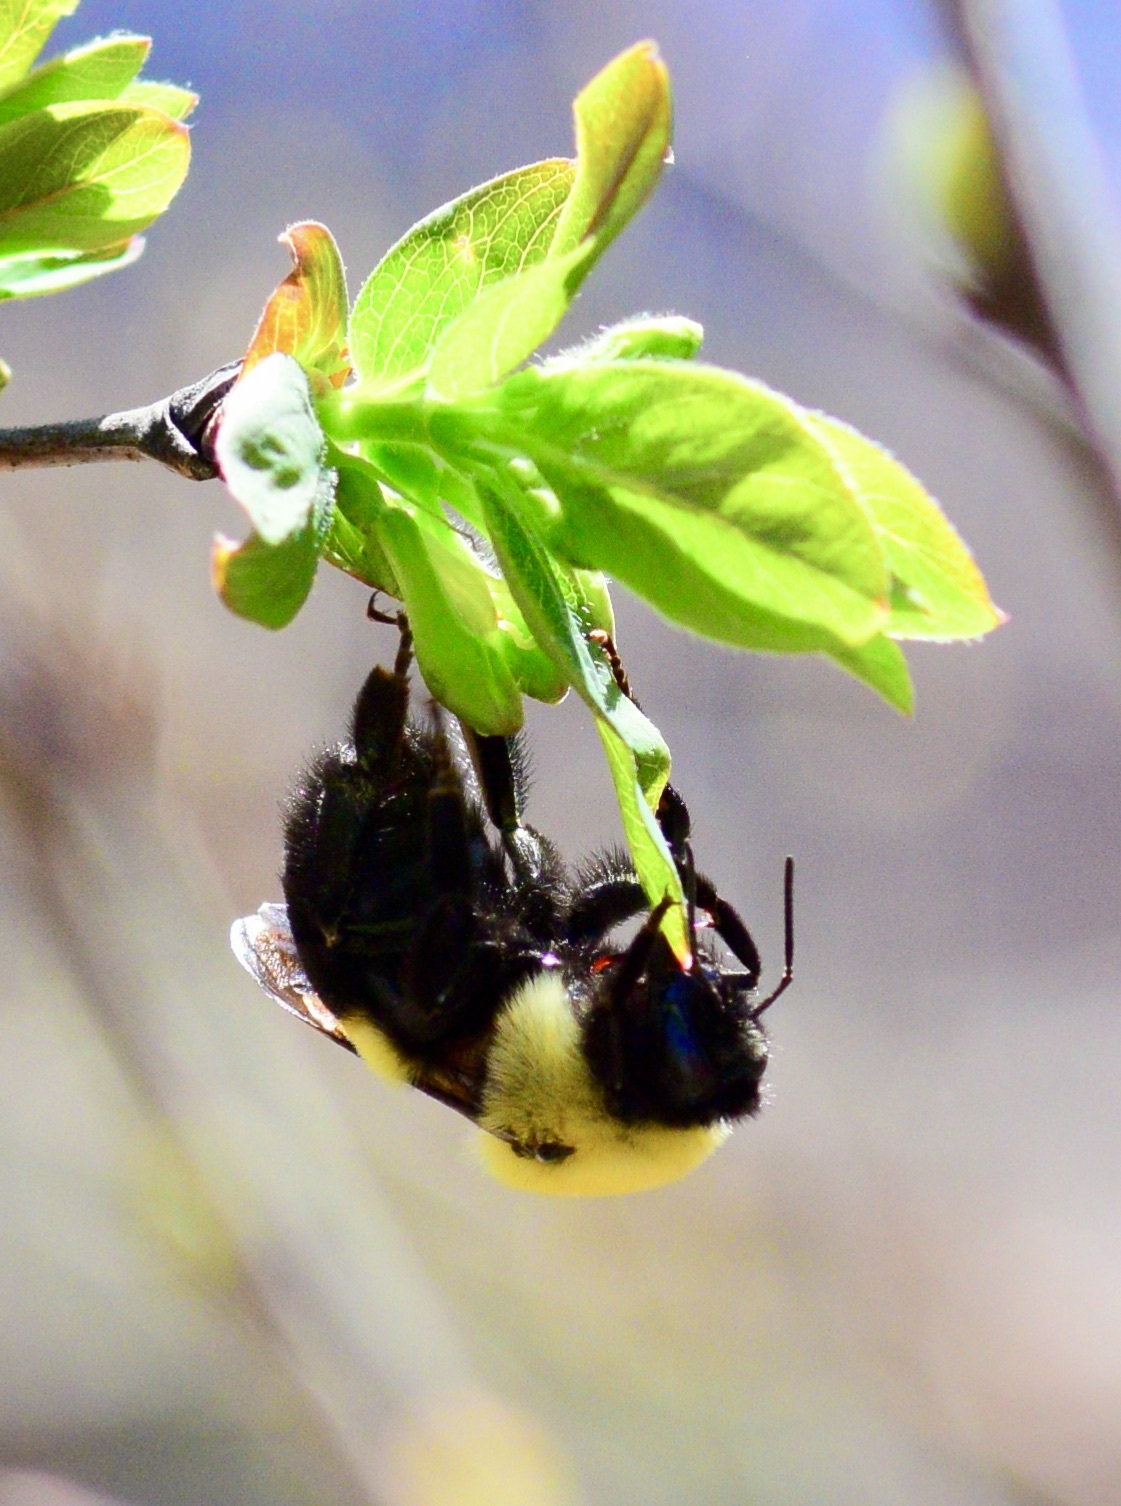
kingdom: Animalia
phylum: Arthropoda
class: Insecta
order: Hymenoptera
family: Apidae
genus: Bombus
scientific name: Bombus griseocollis
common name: Brown-belted bumble bee
